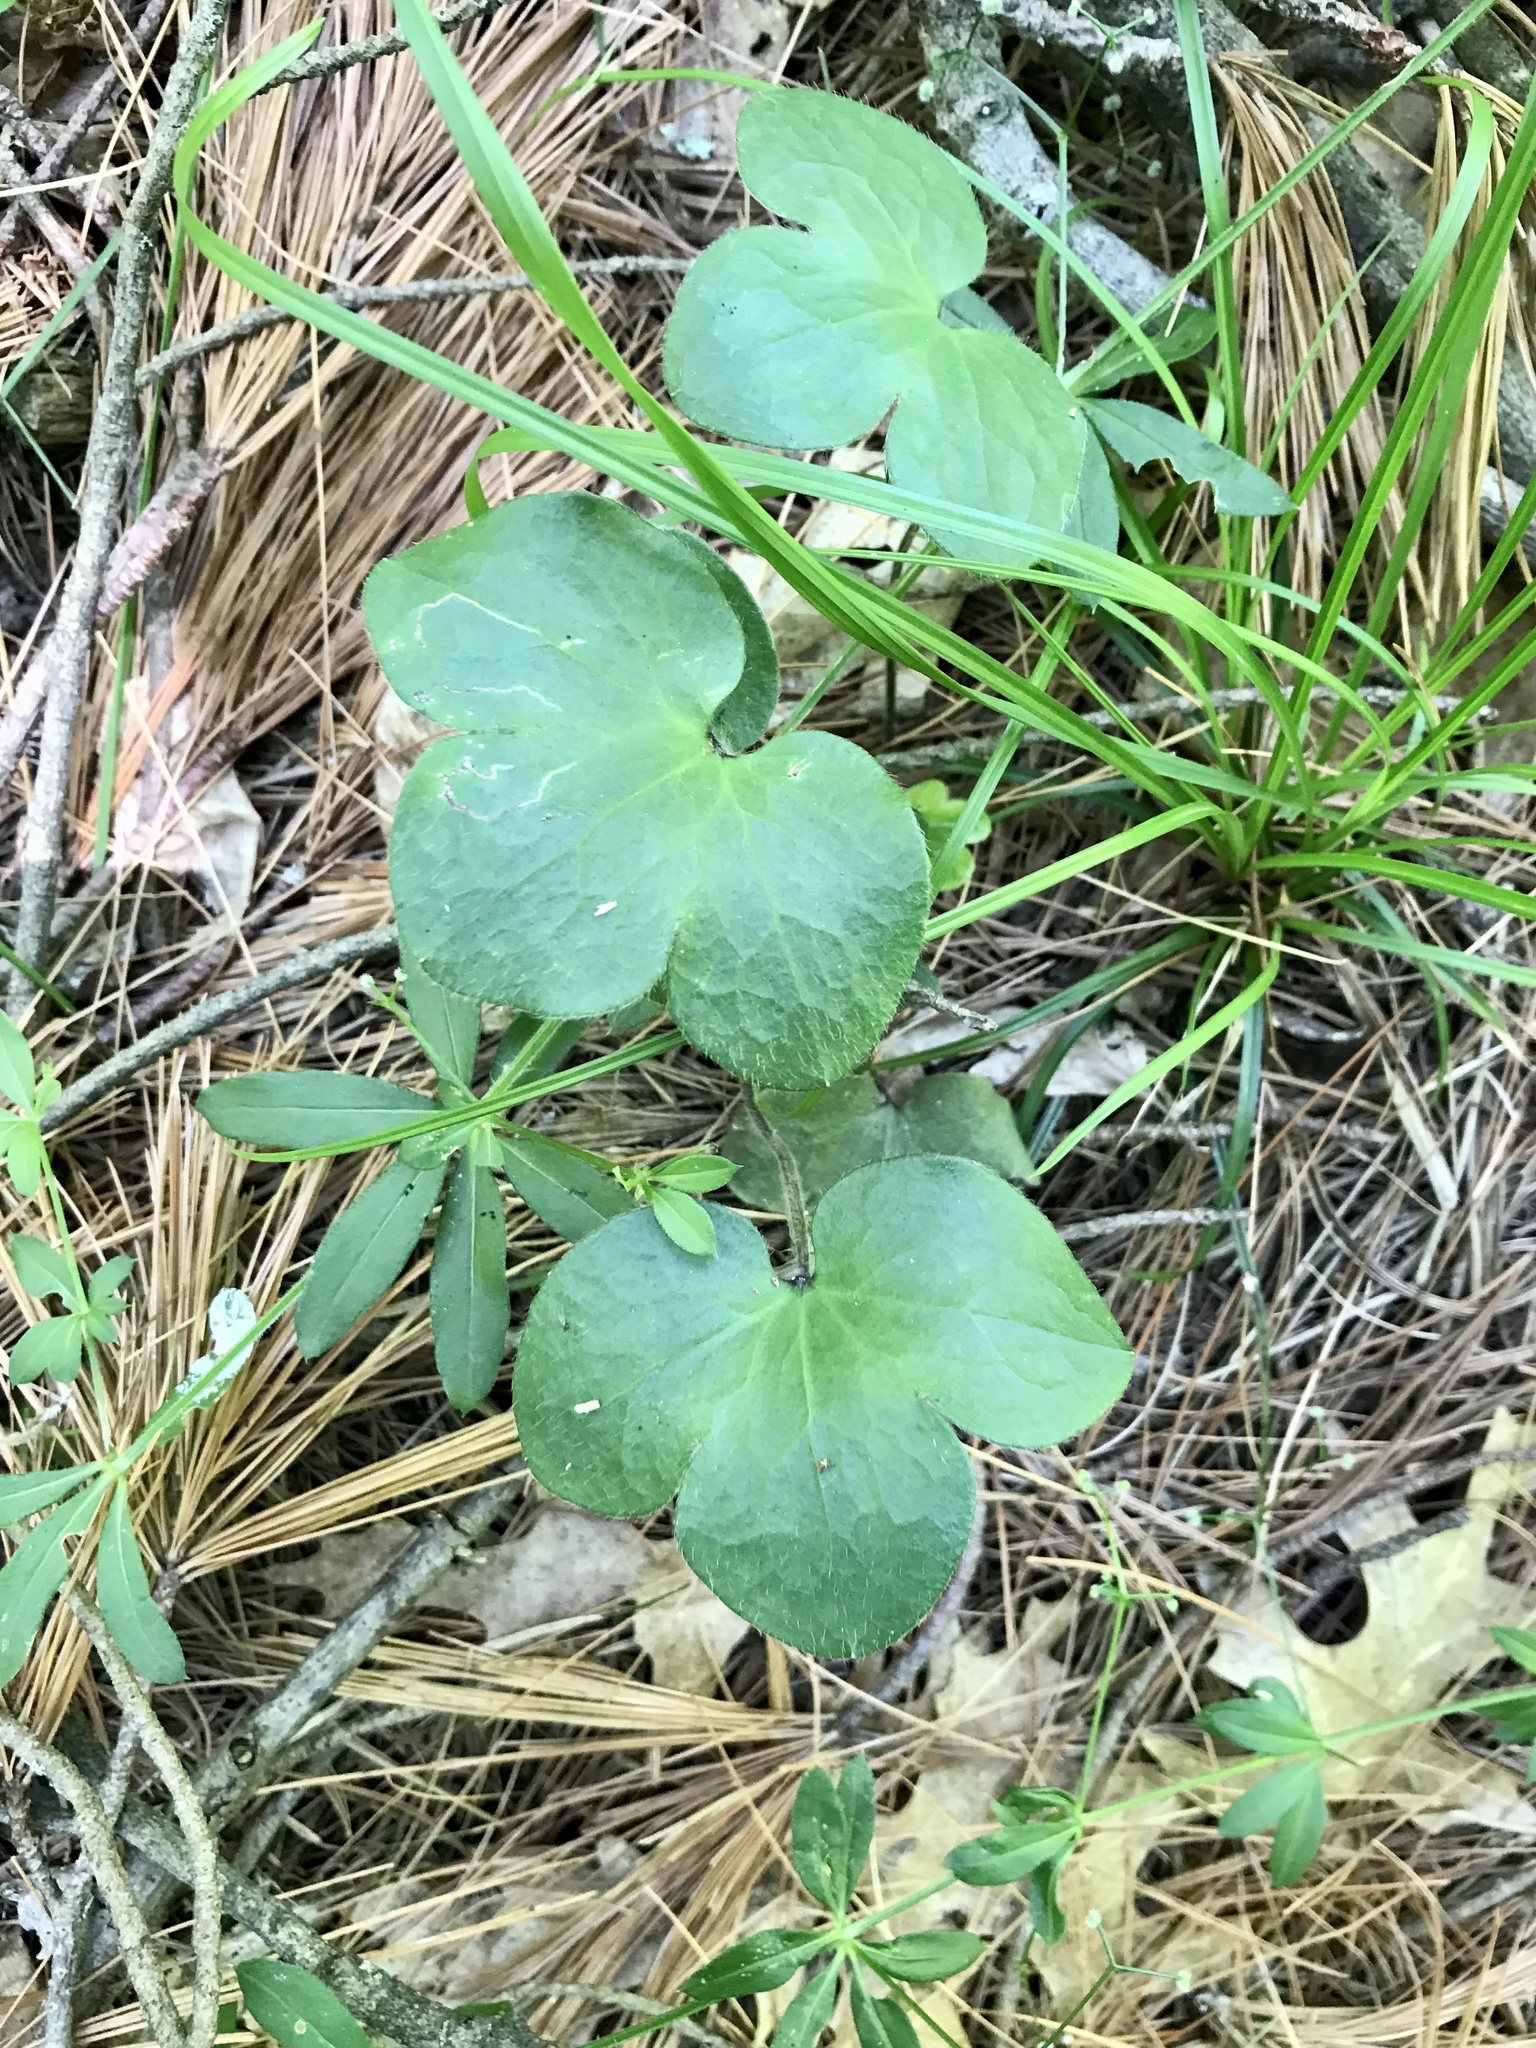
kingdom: Plantae
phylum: Tracheophyta
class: Magnoliopsida
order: Ranunculales
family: Ranunculaceae
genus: Hepatica
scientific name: Hepatica americana
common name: American hepatica
